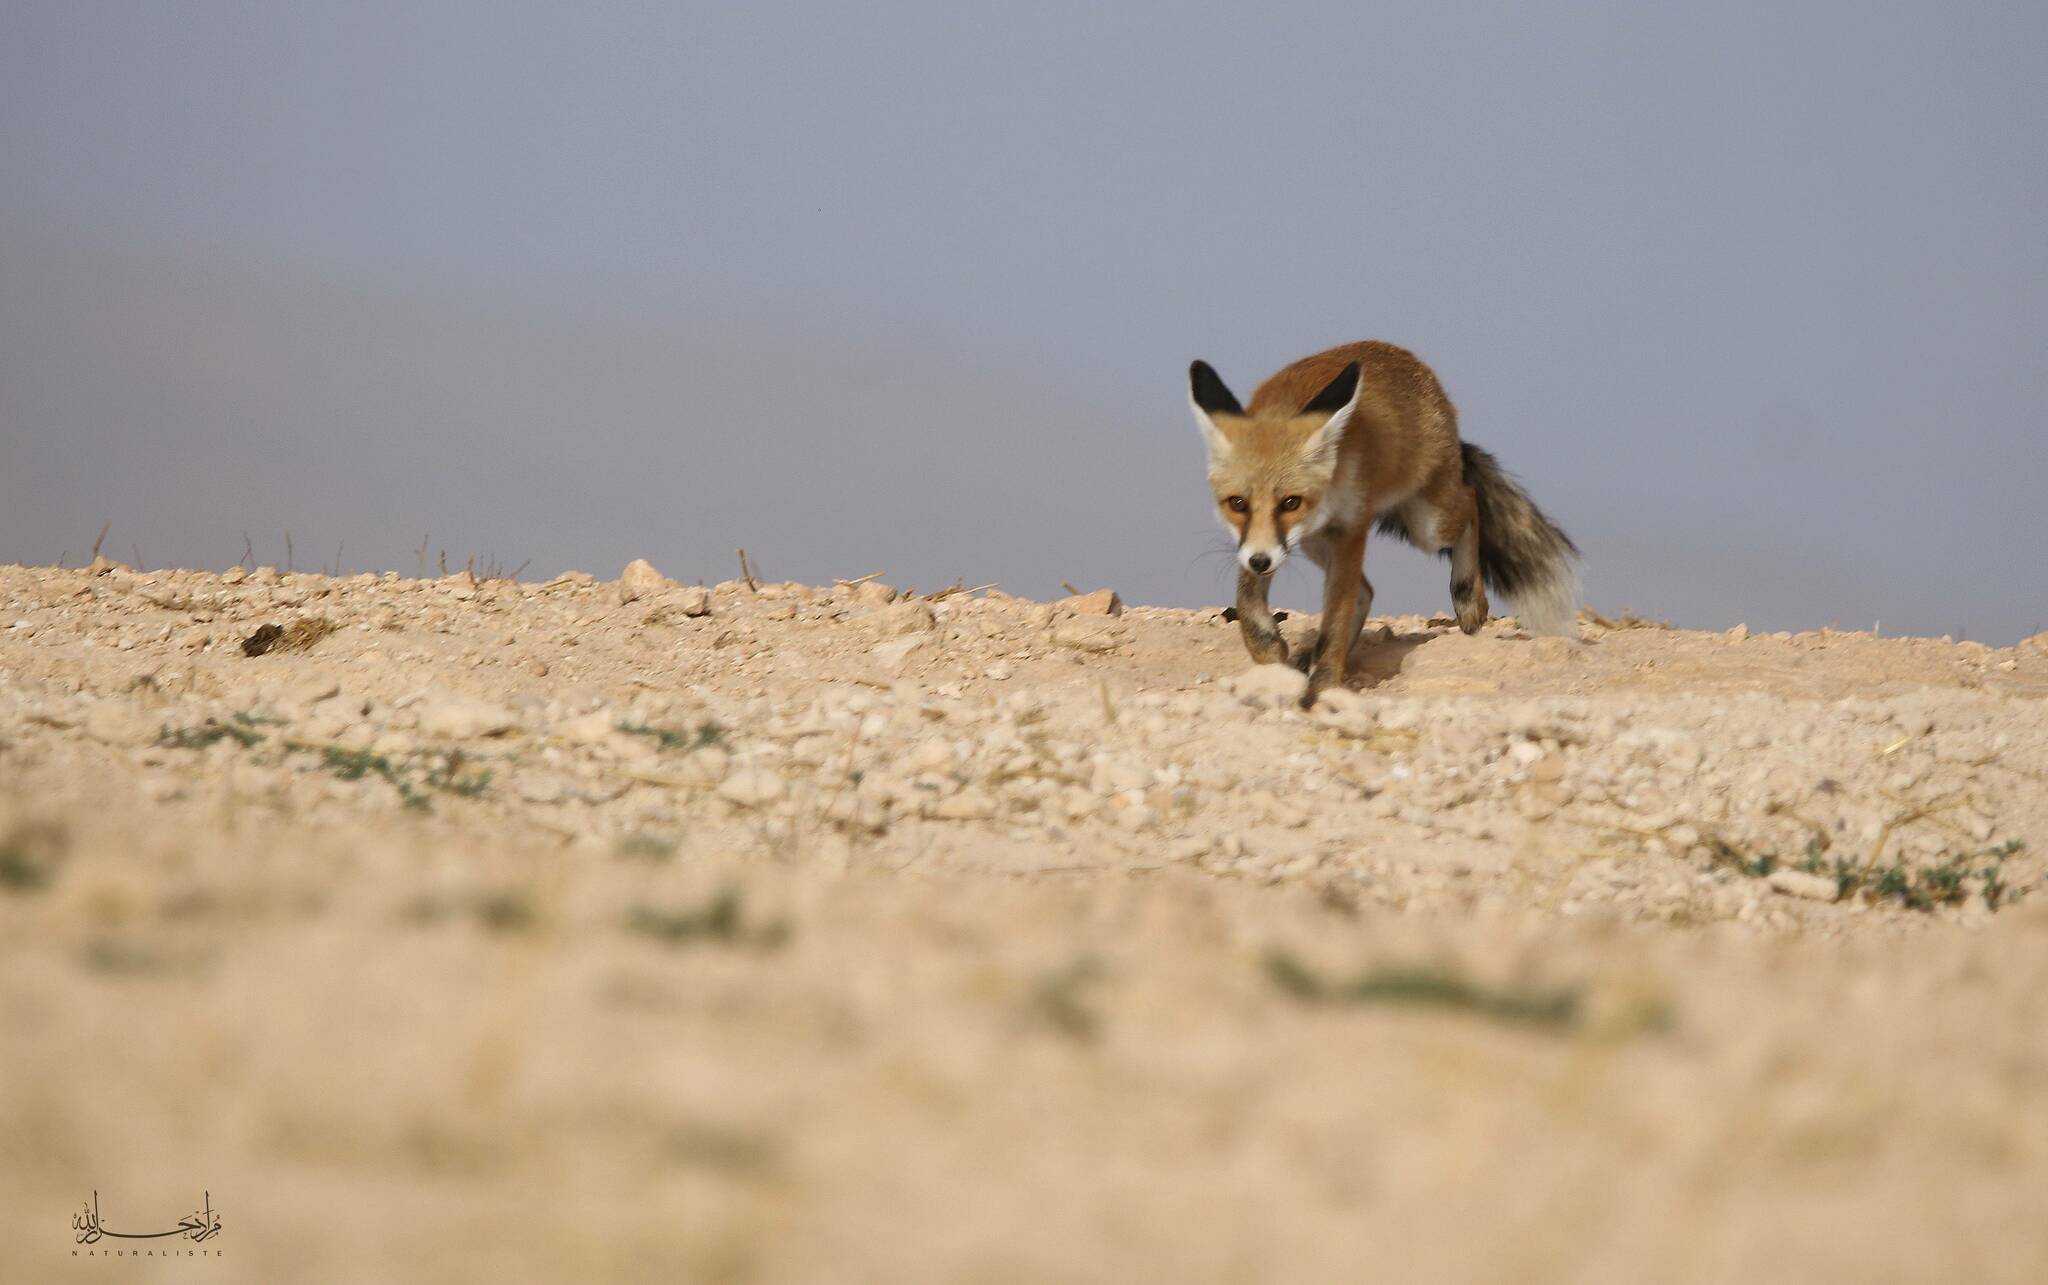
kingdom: Animalia
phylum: Chordata
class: Mammalia
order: Carnivora
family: Canidae
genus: Vulpes
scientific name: Vulpes vulpes
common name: Red fox
